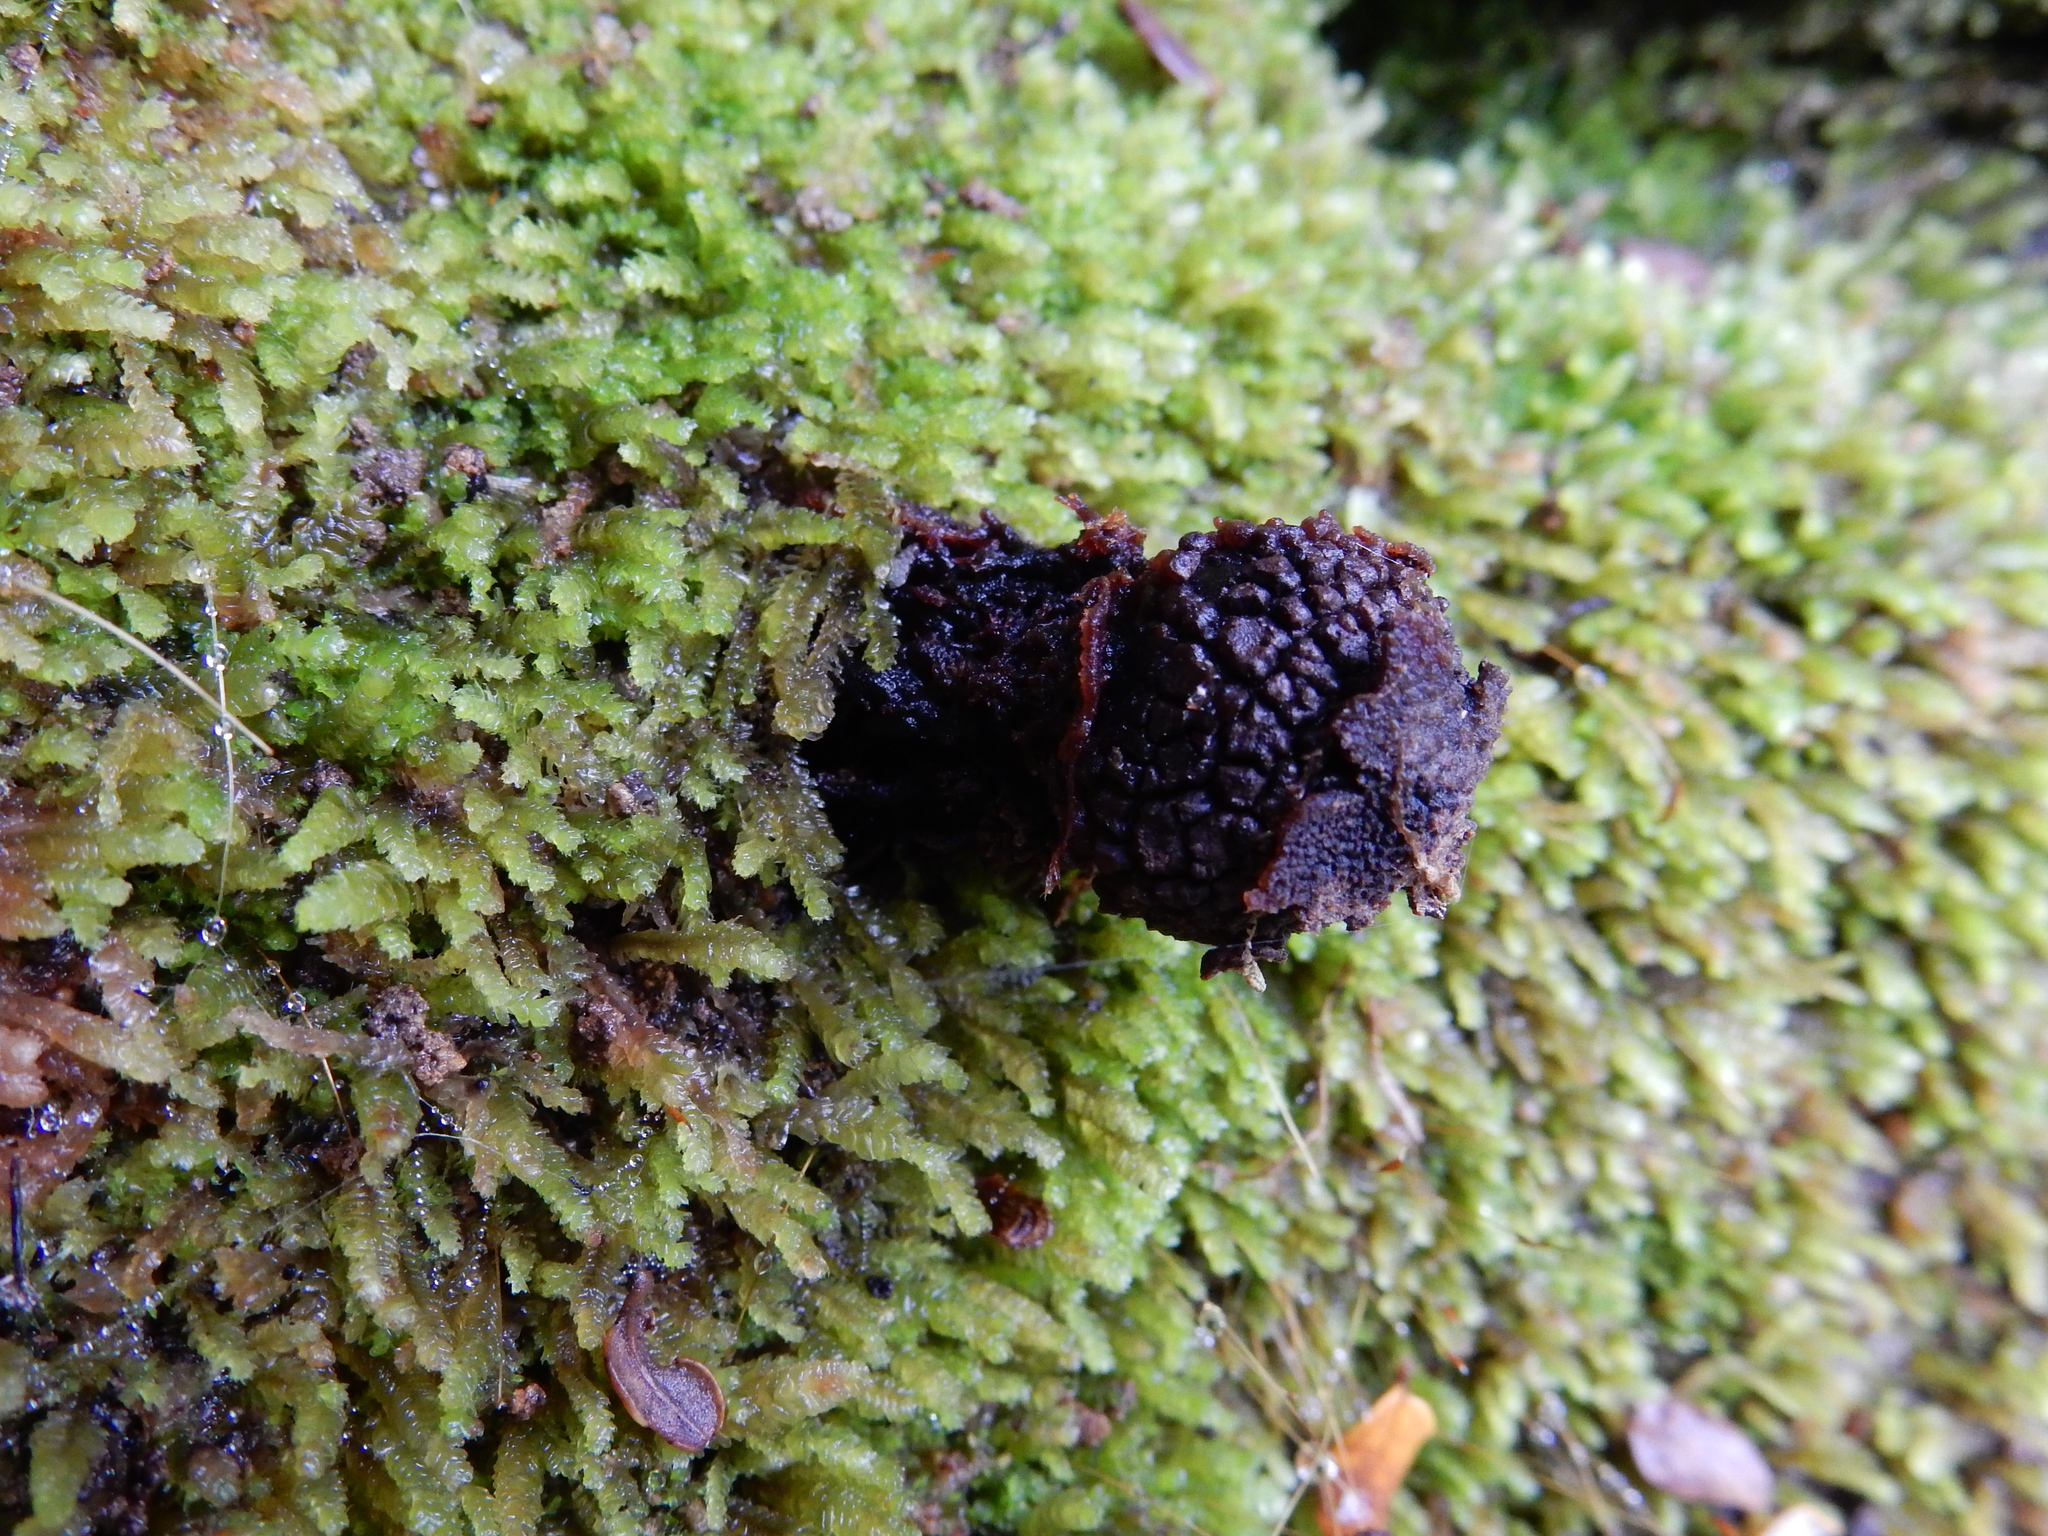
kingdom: Fungi
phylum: Basidiomycota
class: Agaricomycetes
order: Boletales
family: Calostomataceae
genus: Calostoma
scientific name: Calostoma rodwayi
